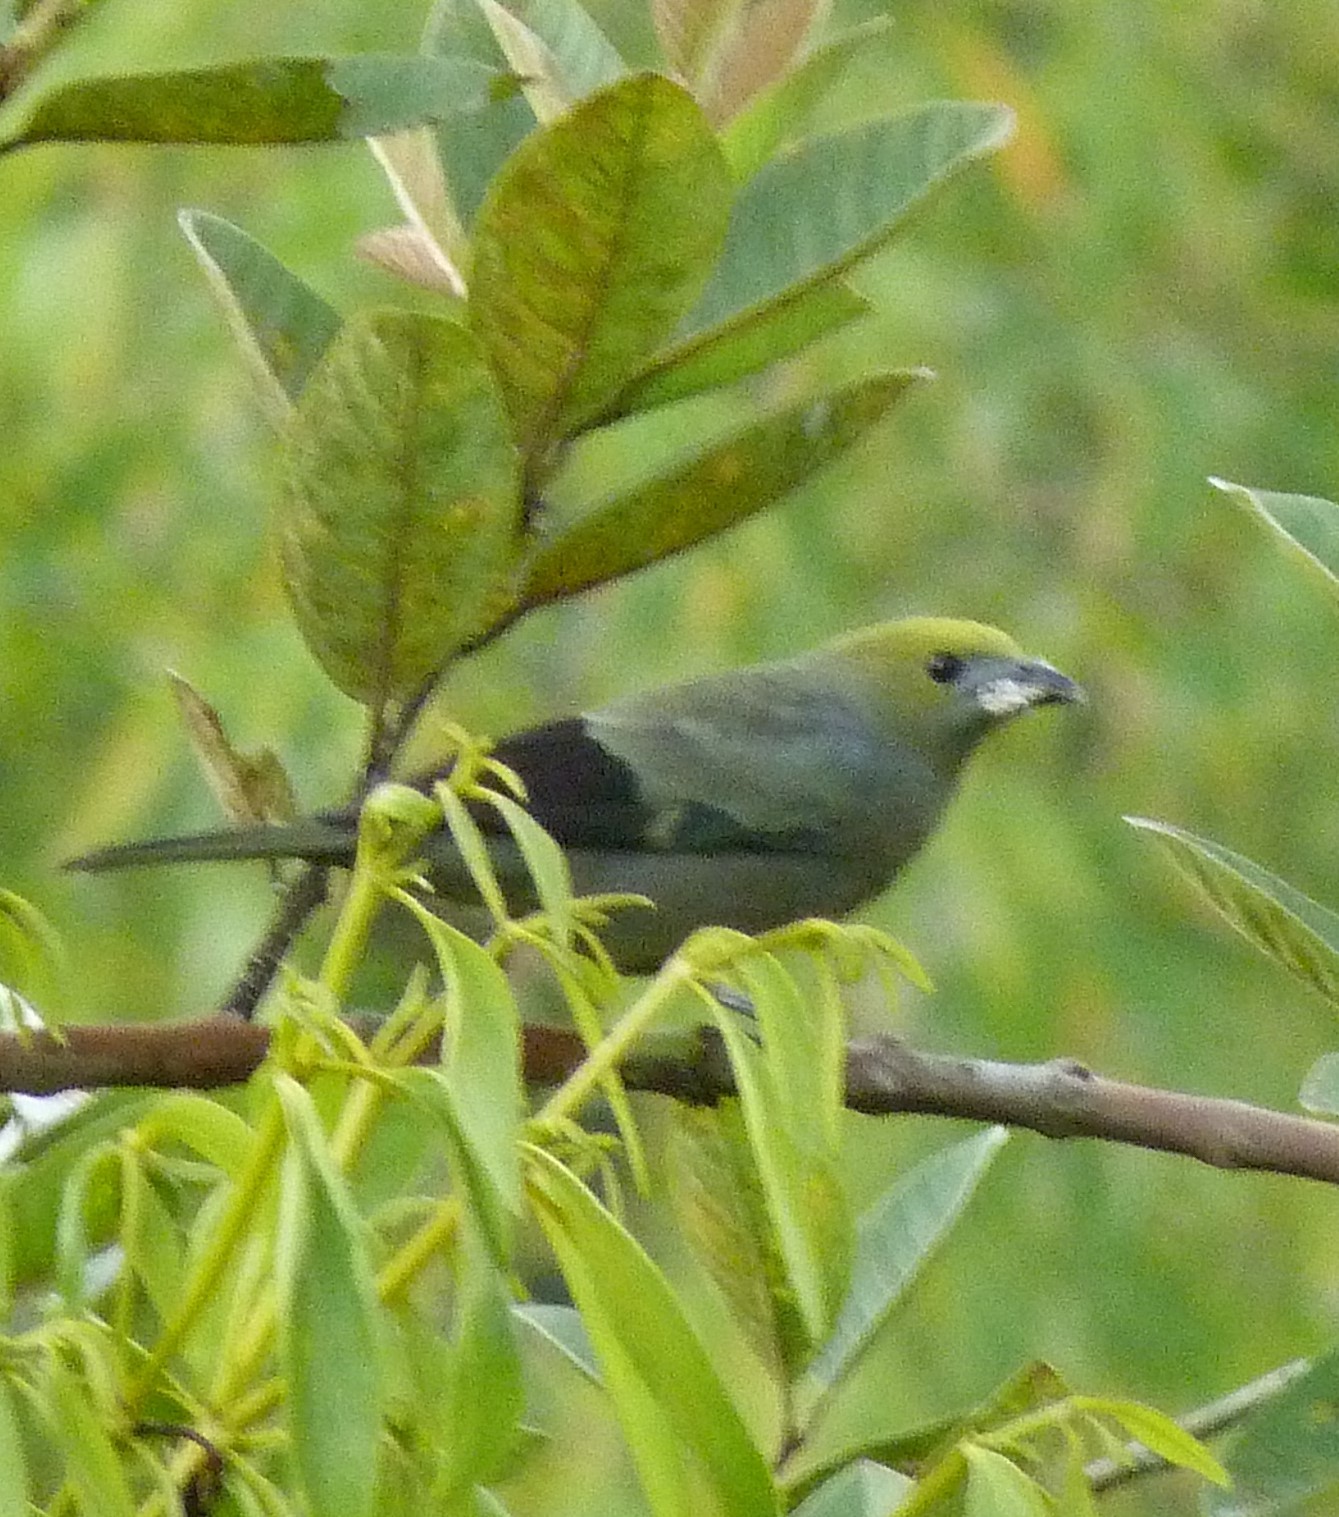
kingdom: Animalia
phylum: Chordata
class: Aves
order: Passeriformes
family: Thraupidae
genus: Thraupis
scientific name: Thraupis palmarum
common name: Palm tanager
